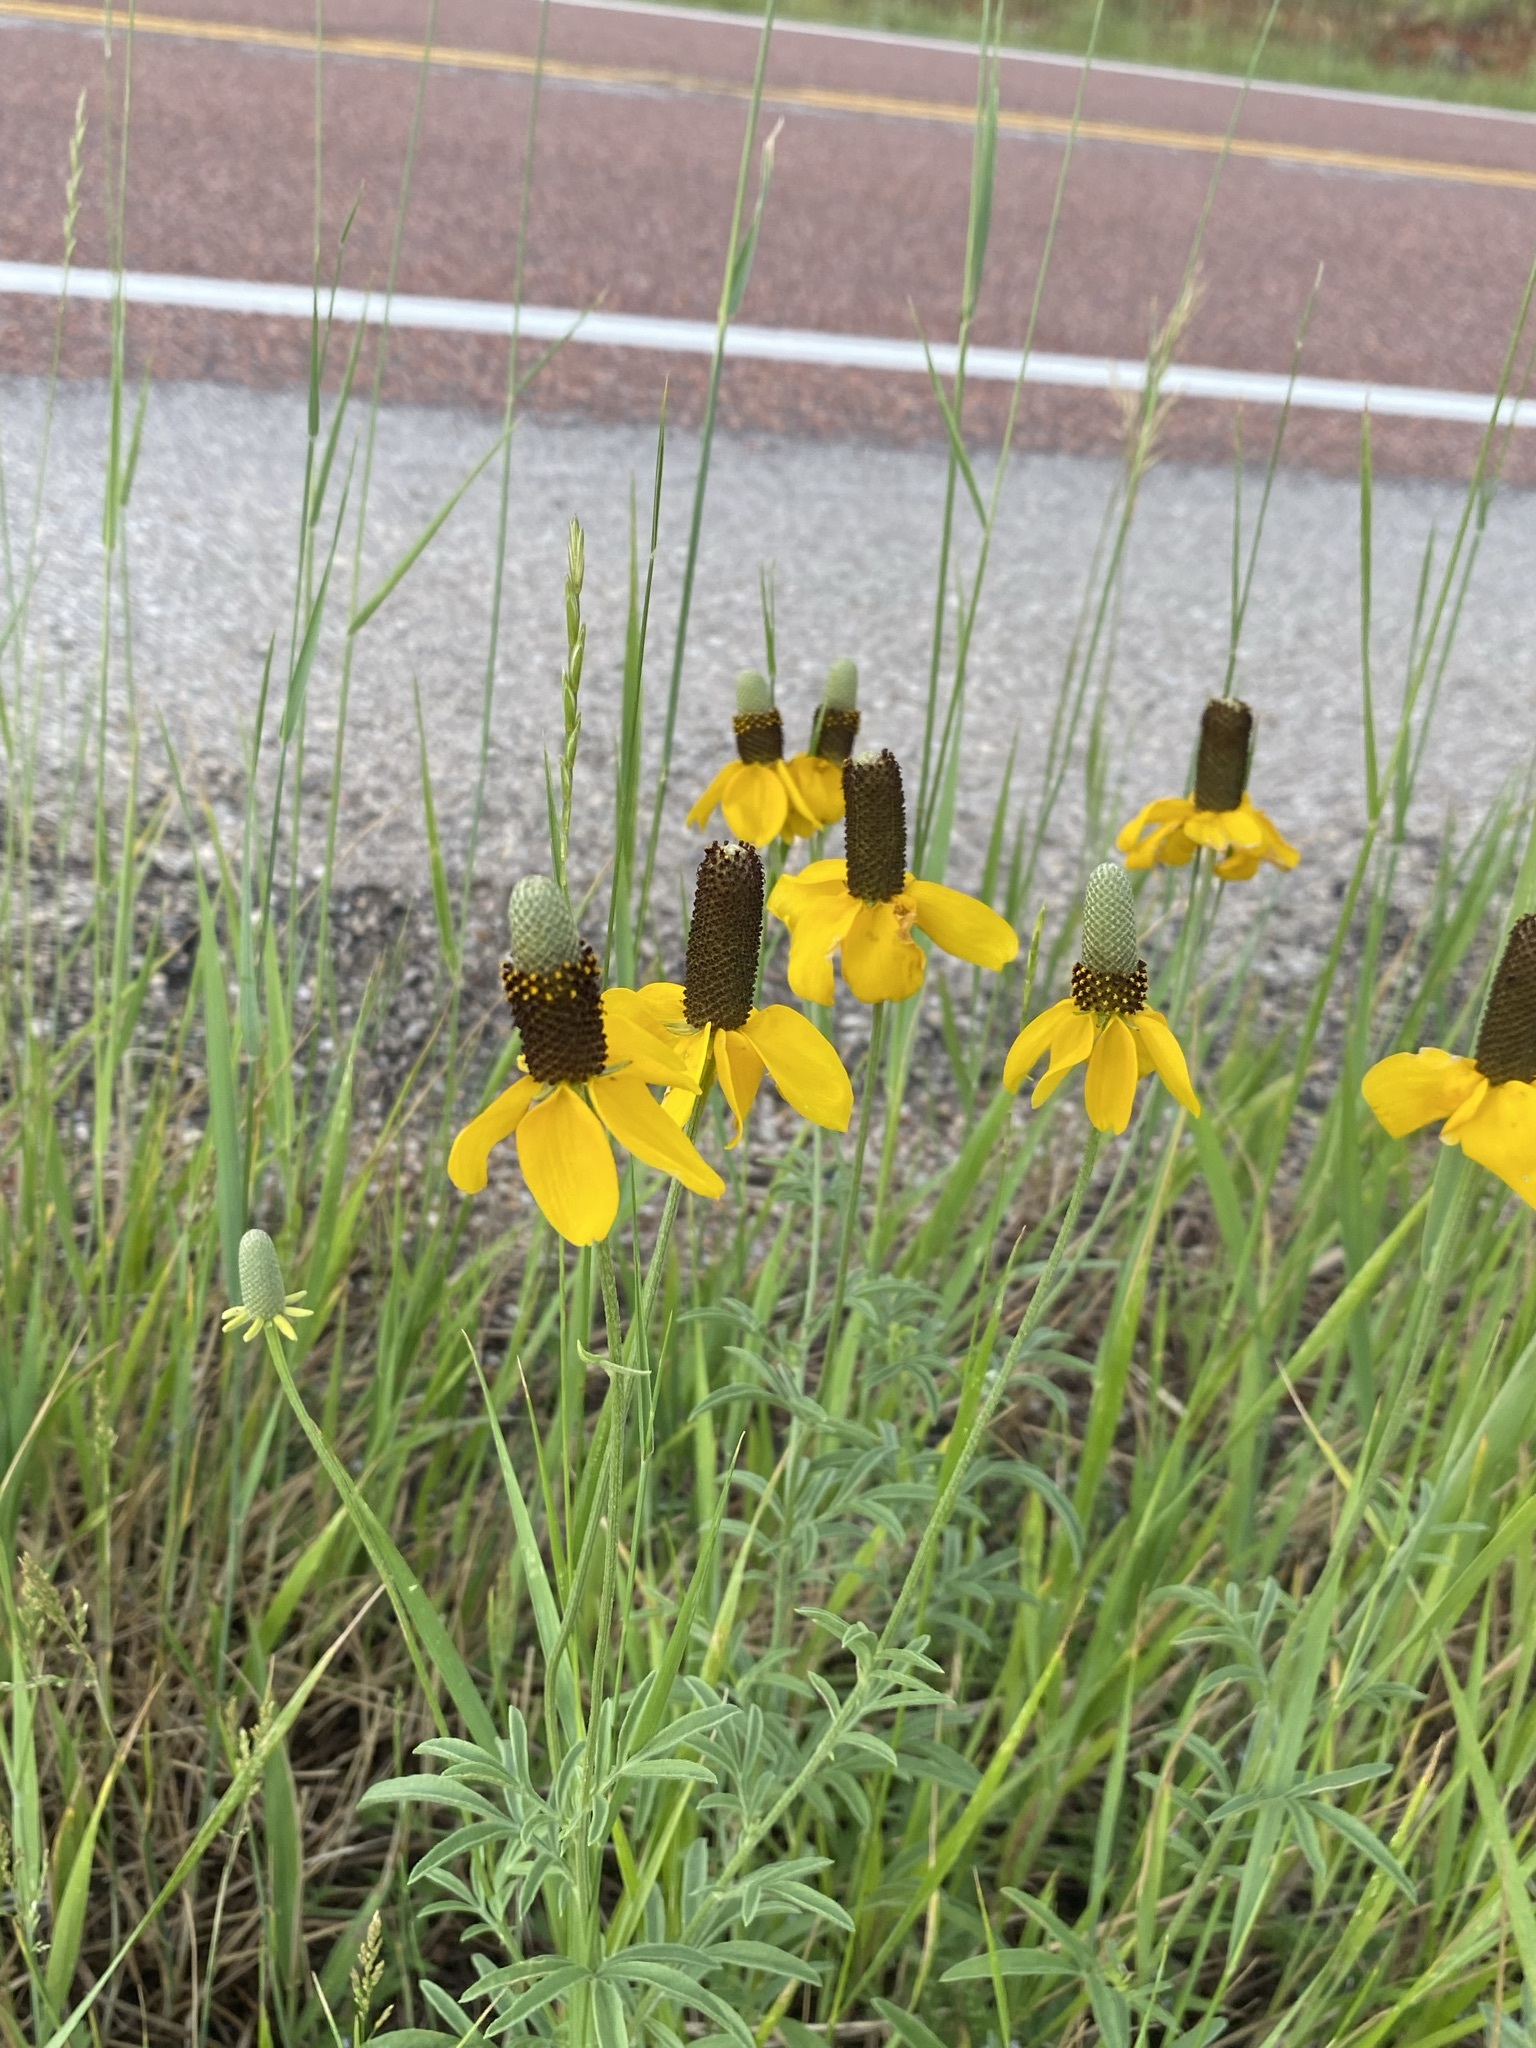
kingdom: Plantae
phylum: Tracheophyta
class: Magnoliopsida
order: Asterales
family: Asteraceae
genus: Ratibida
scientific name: Ratibida columnifera
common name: Prairie coneflower
